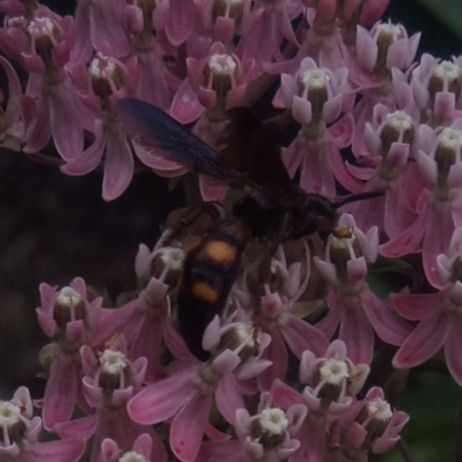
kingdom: Animalia
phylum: Arthropoda
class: Insecta
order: Hymenoptera
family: Scoliidae
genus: Scolia
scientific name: Scolia nobilitata
